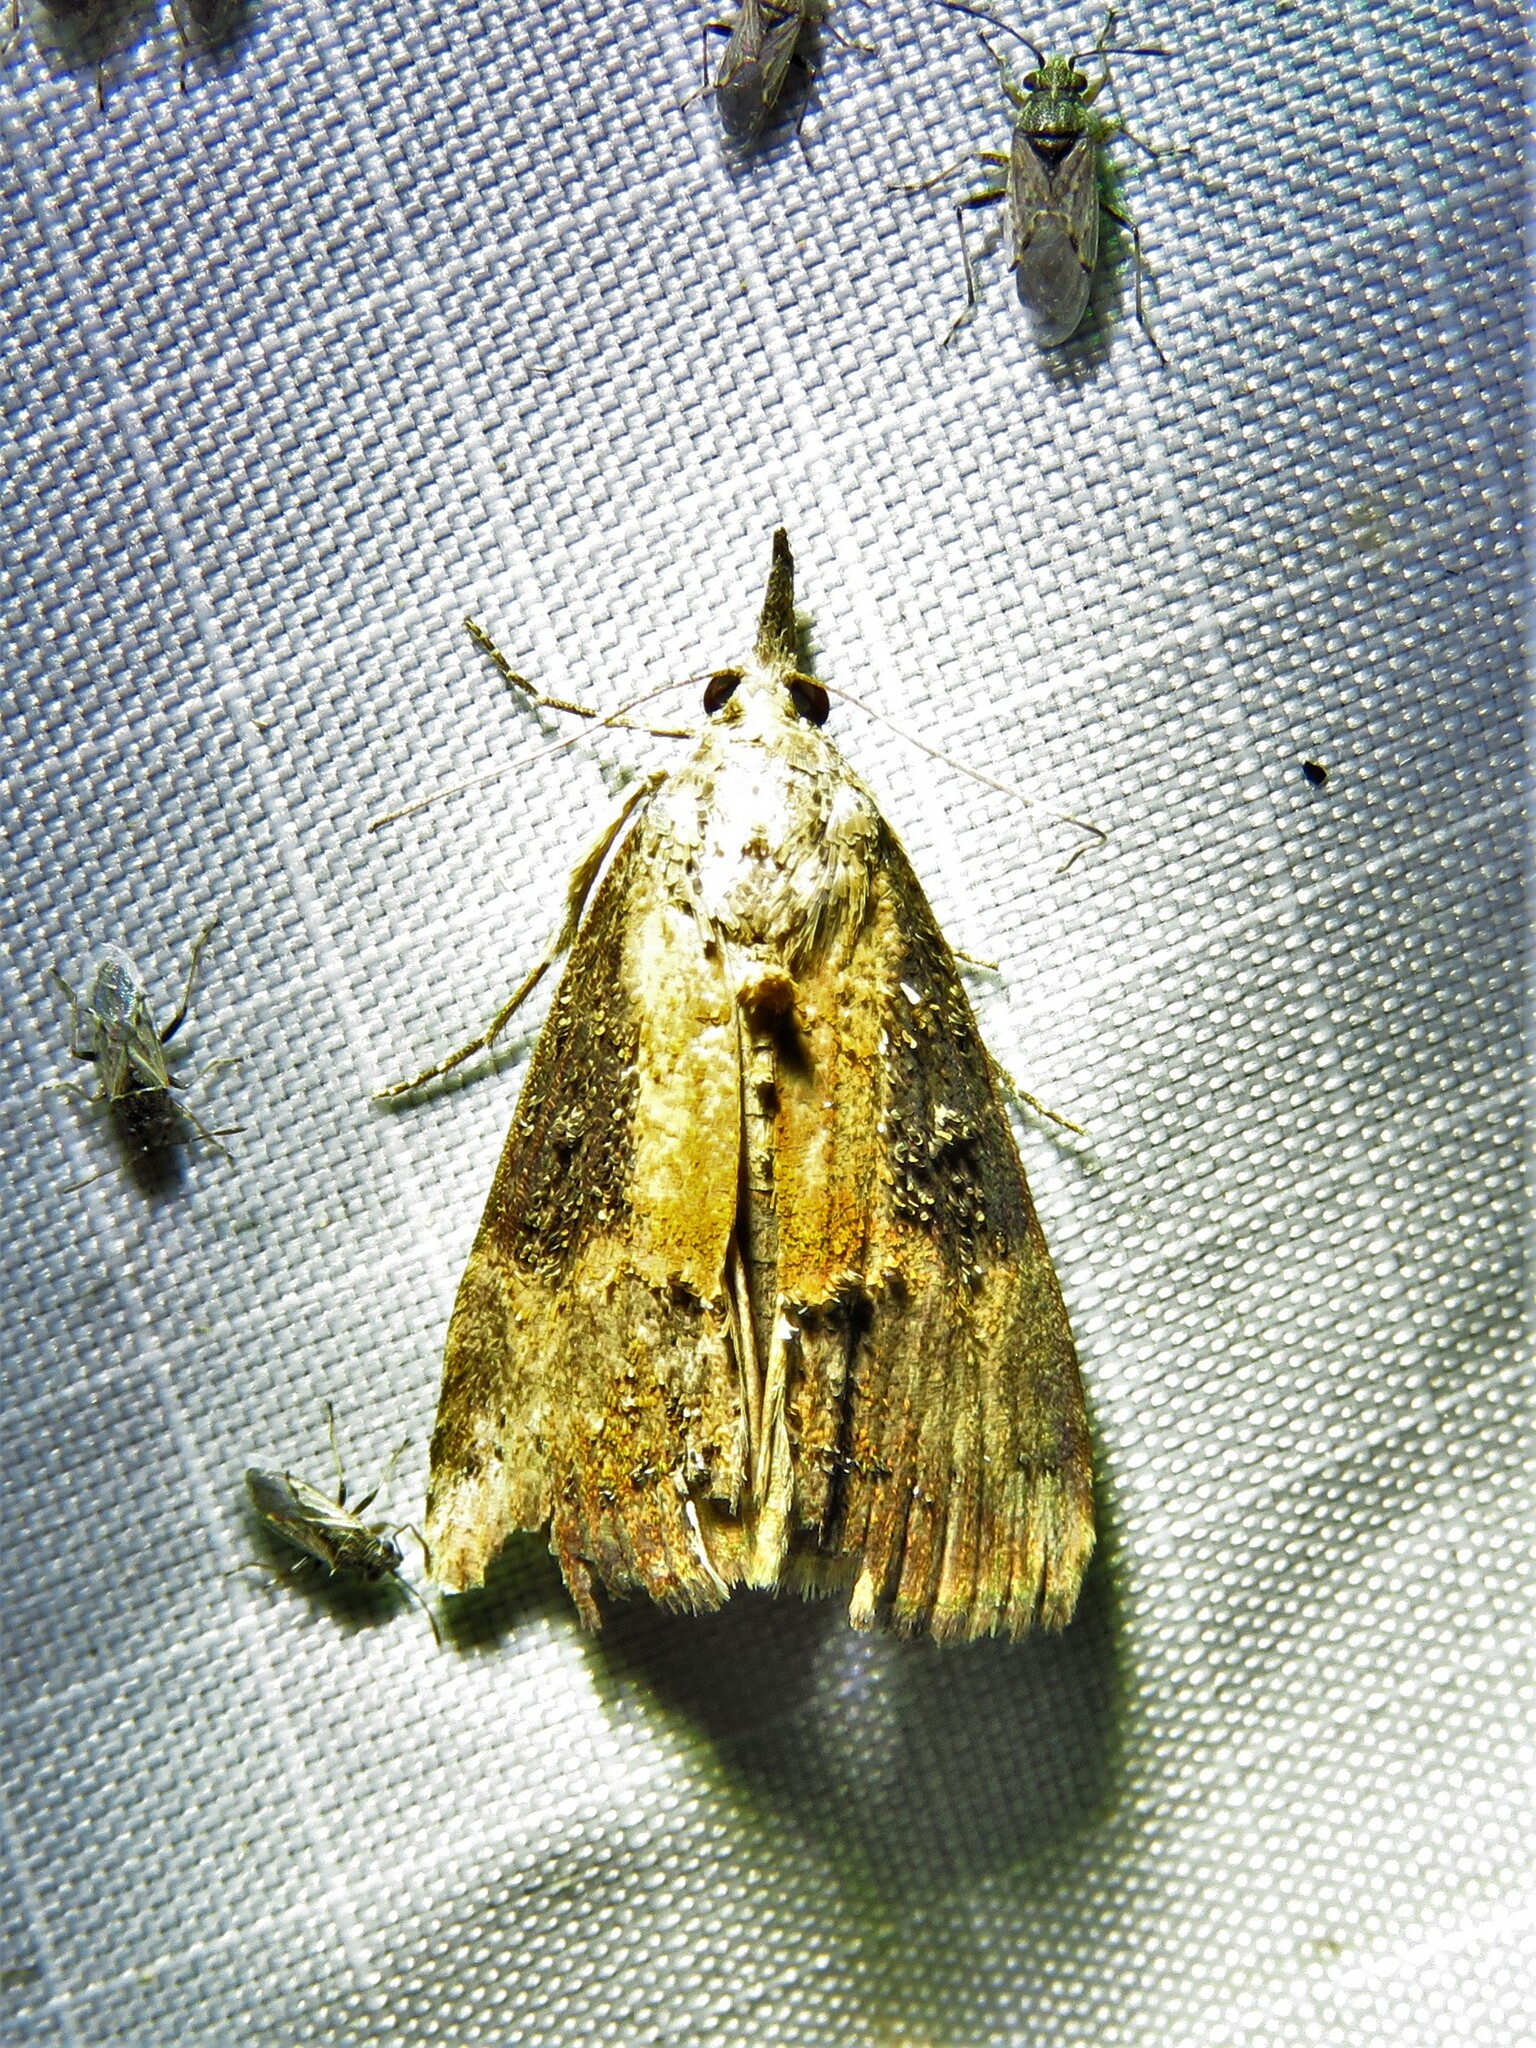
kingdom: Animalia
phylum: Arthropoda
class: Insecta
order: Lepidoptera
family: Erebidae
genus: Hypena
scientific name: Hypena scabra
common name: Green cloverworm
